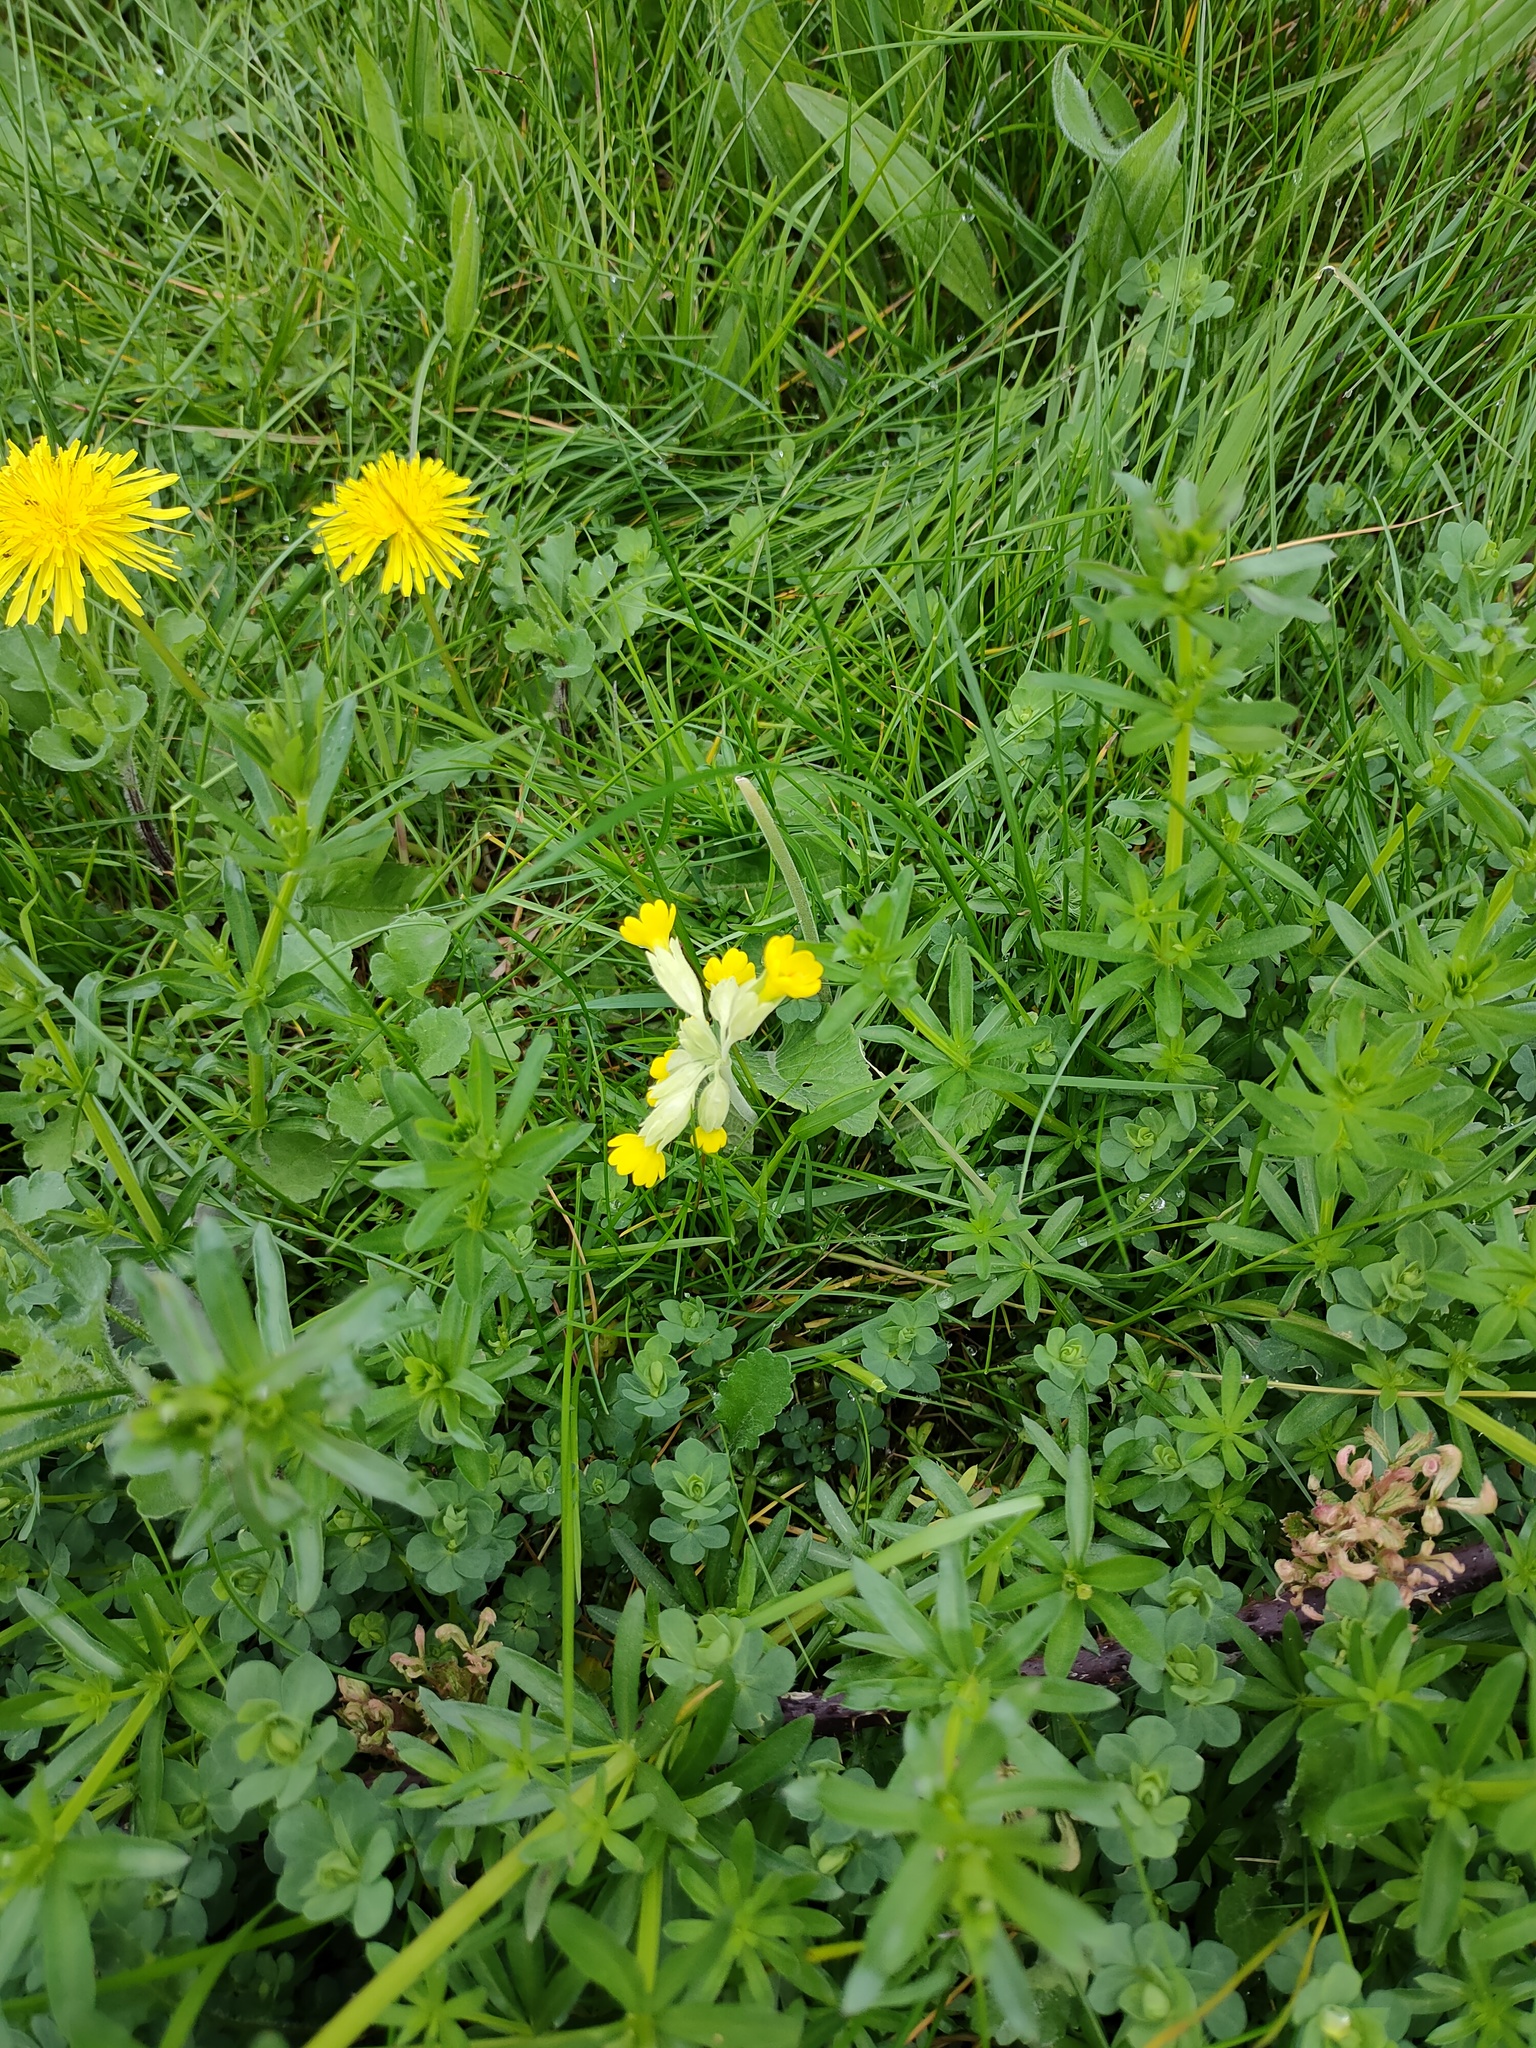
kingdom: Plantae
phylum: Tracheophyta
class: Magnoliopsida
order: Ericales
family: Primulaceae
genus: Primula
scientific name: Primula veris
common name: Cowslip
